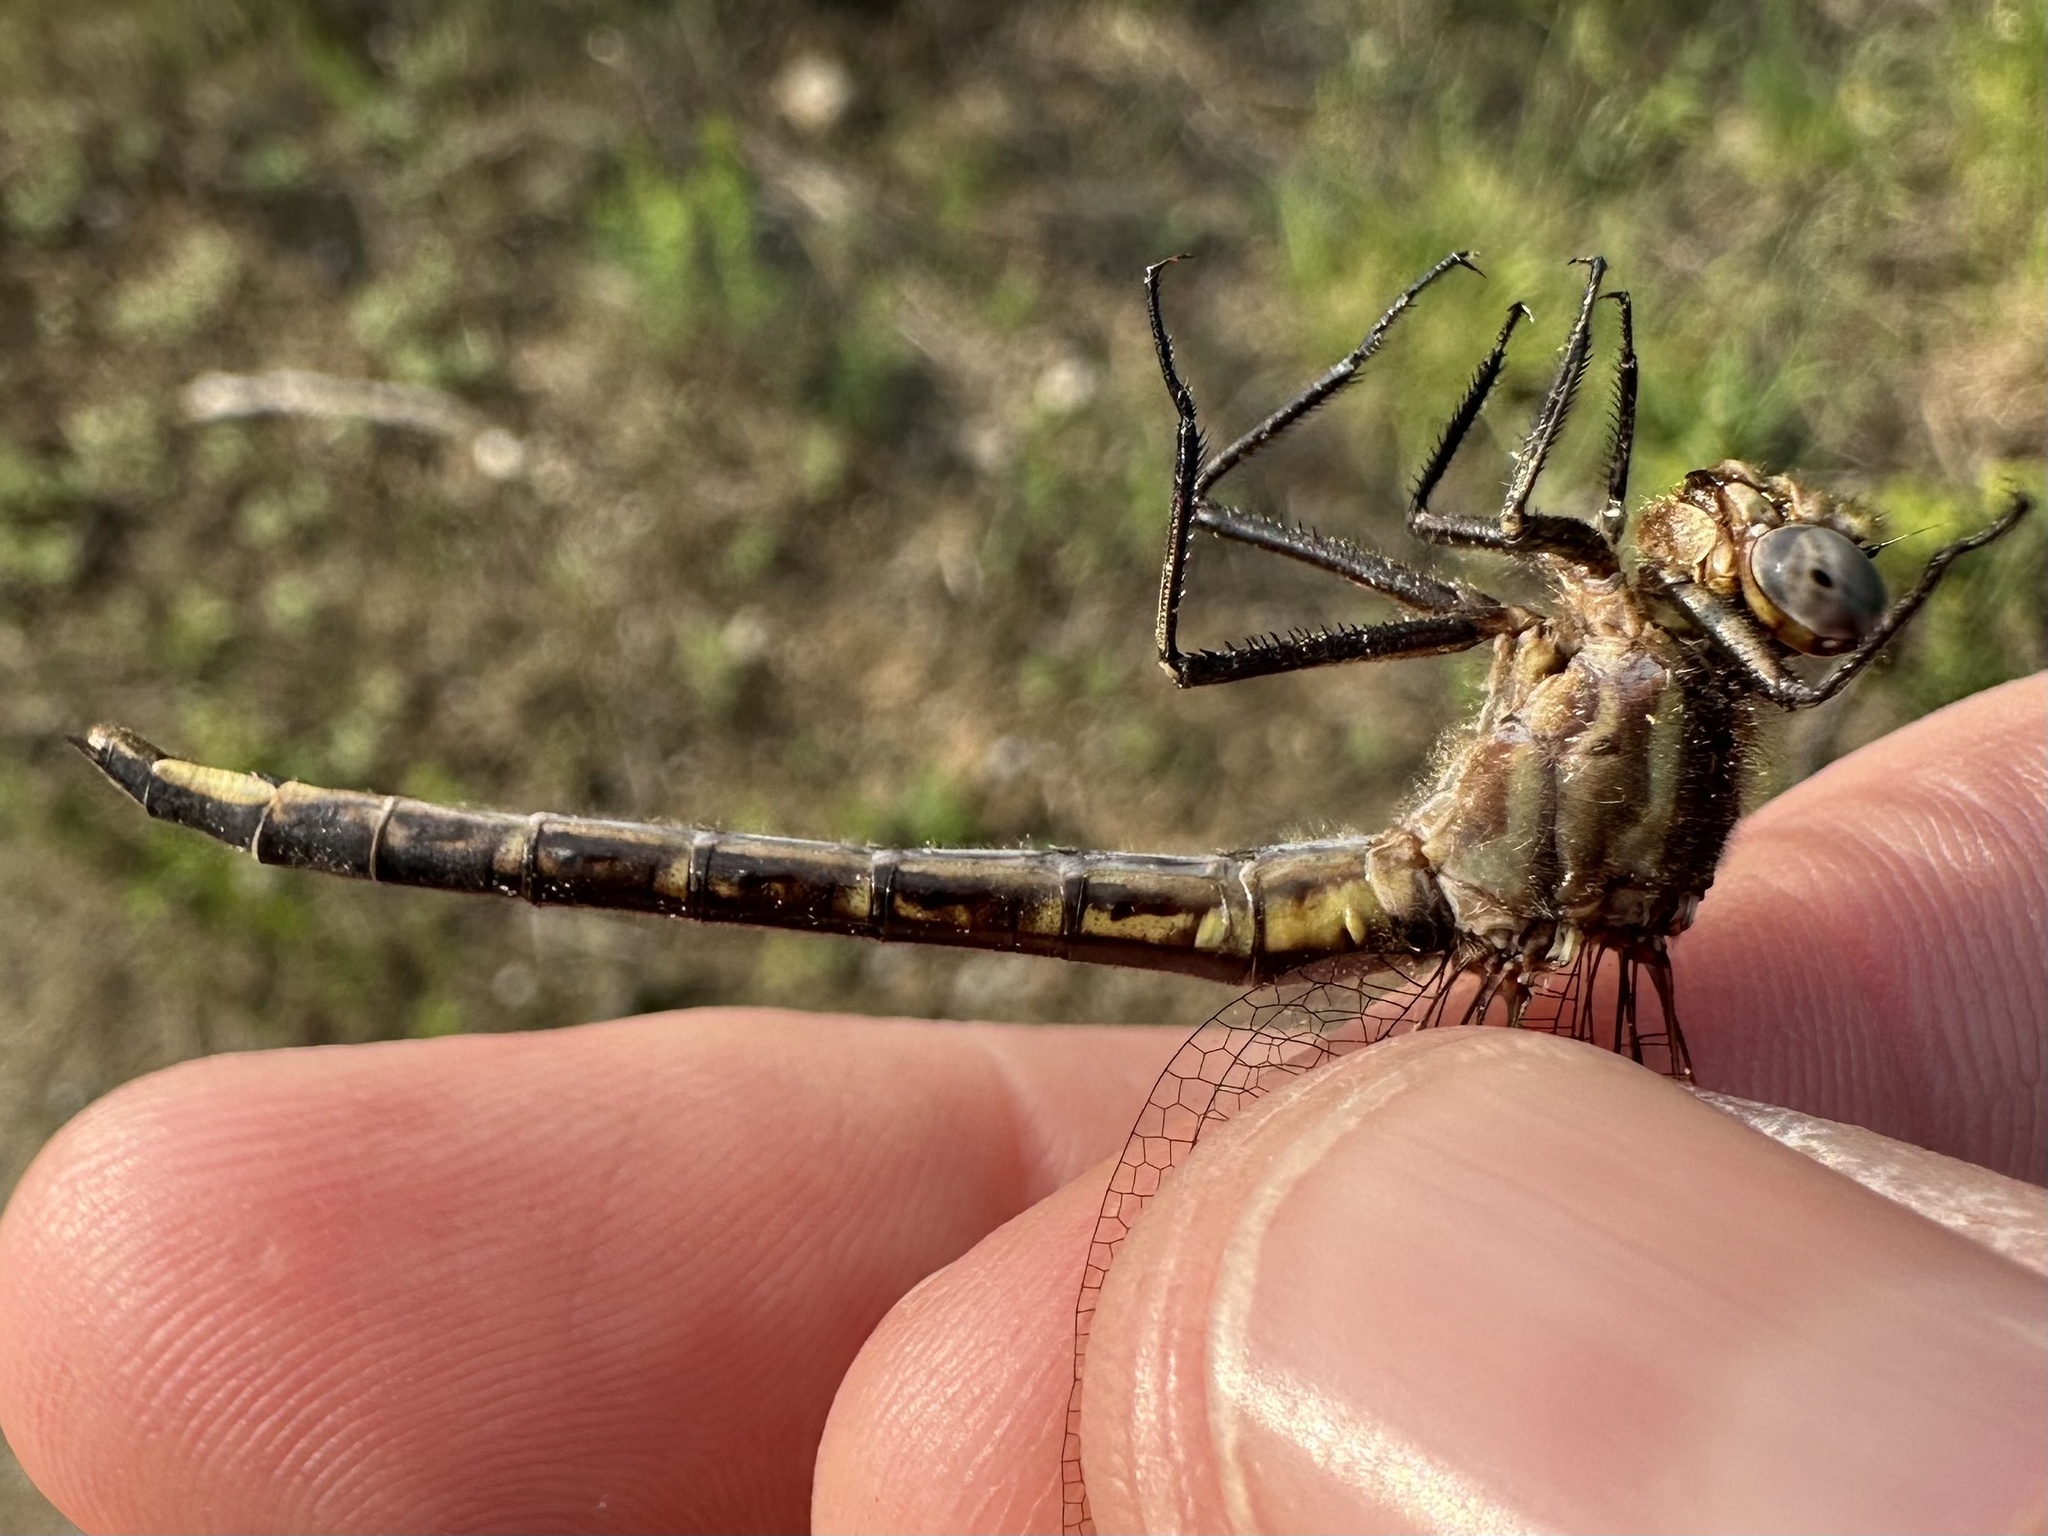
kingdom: Animalia
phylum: Arthropoda
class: Insecta
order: Odonata
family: Gomphidae
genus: Phanogomphus
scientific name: Phanogomphus spicatus
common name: Dusky clubtail
